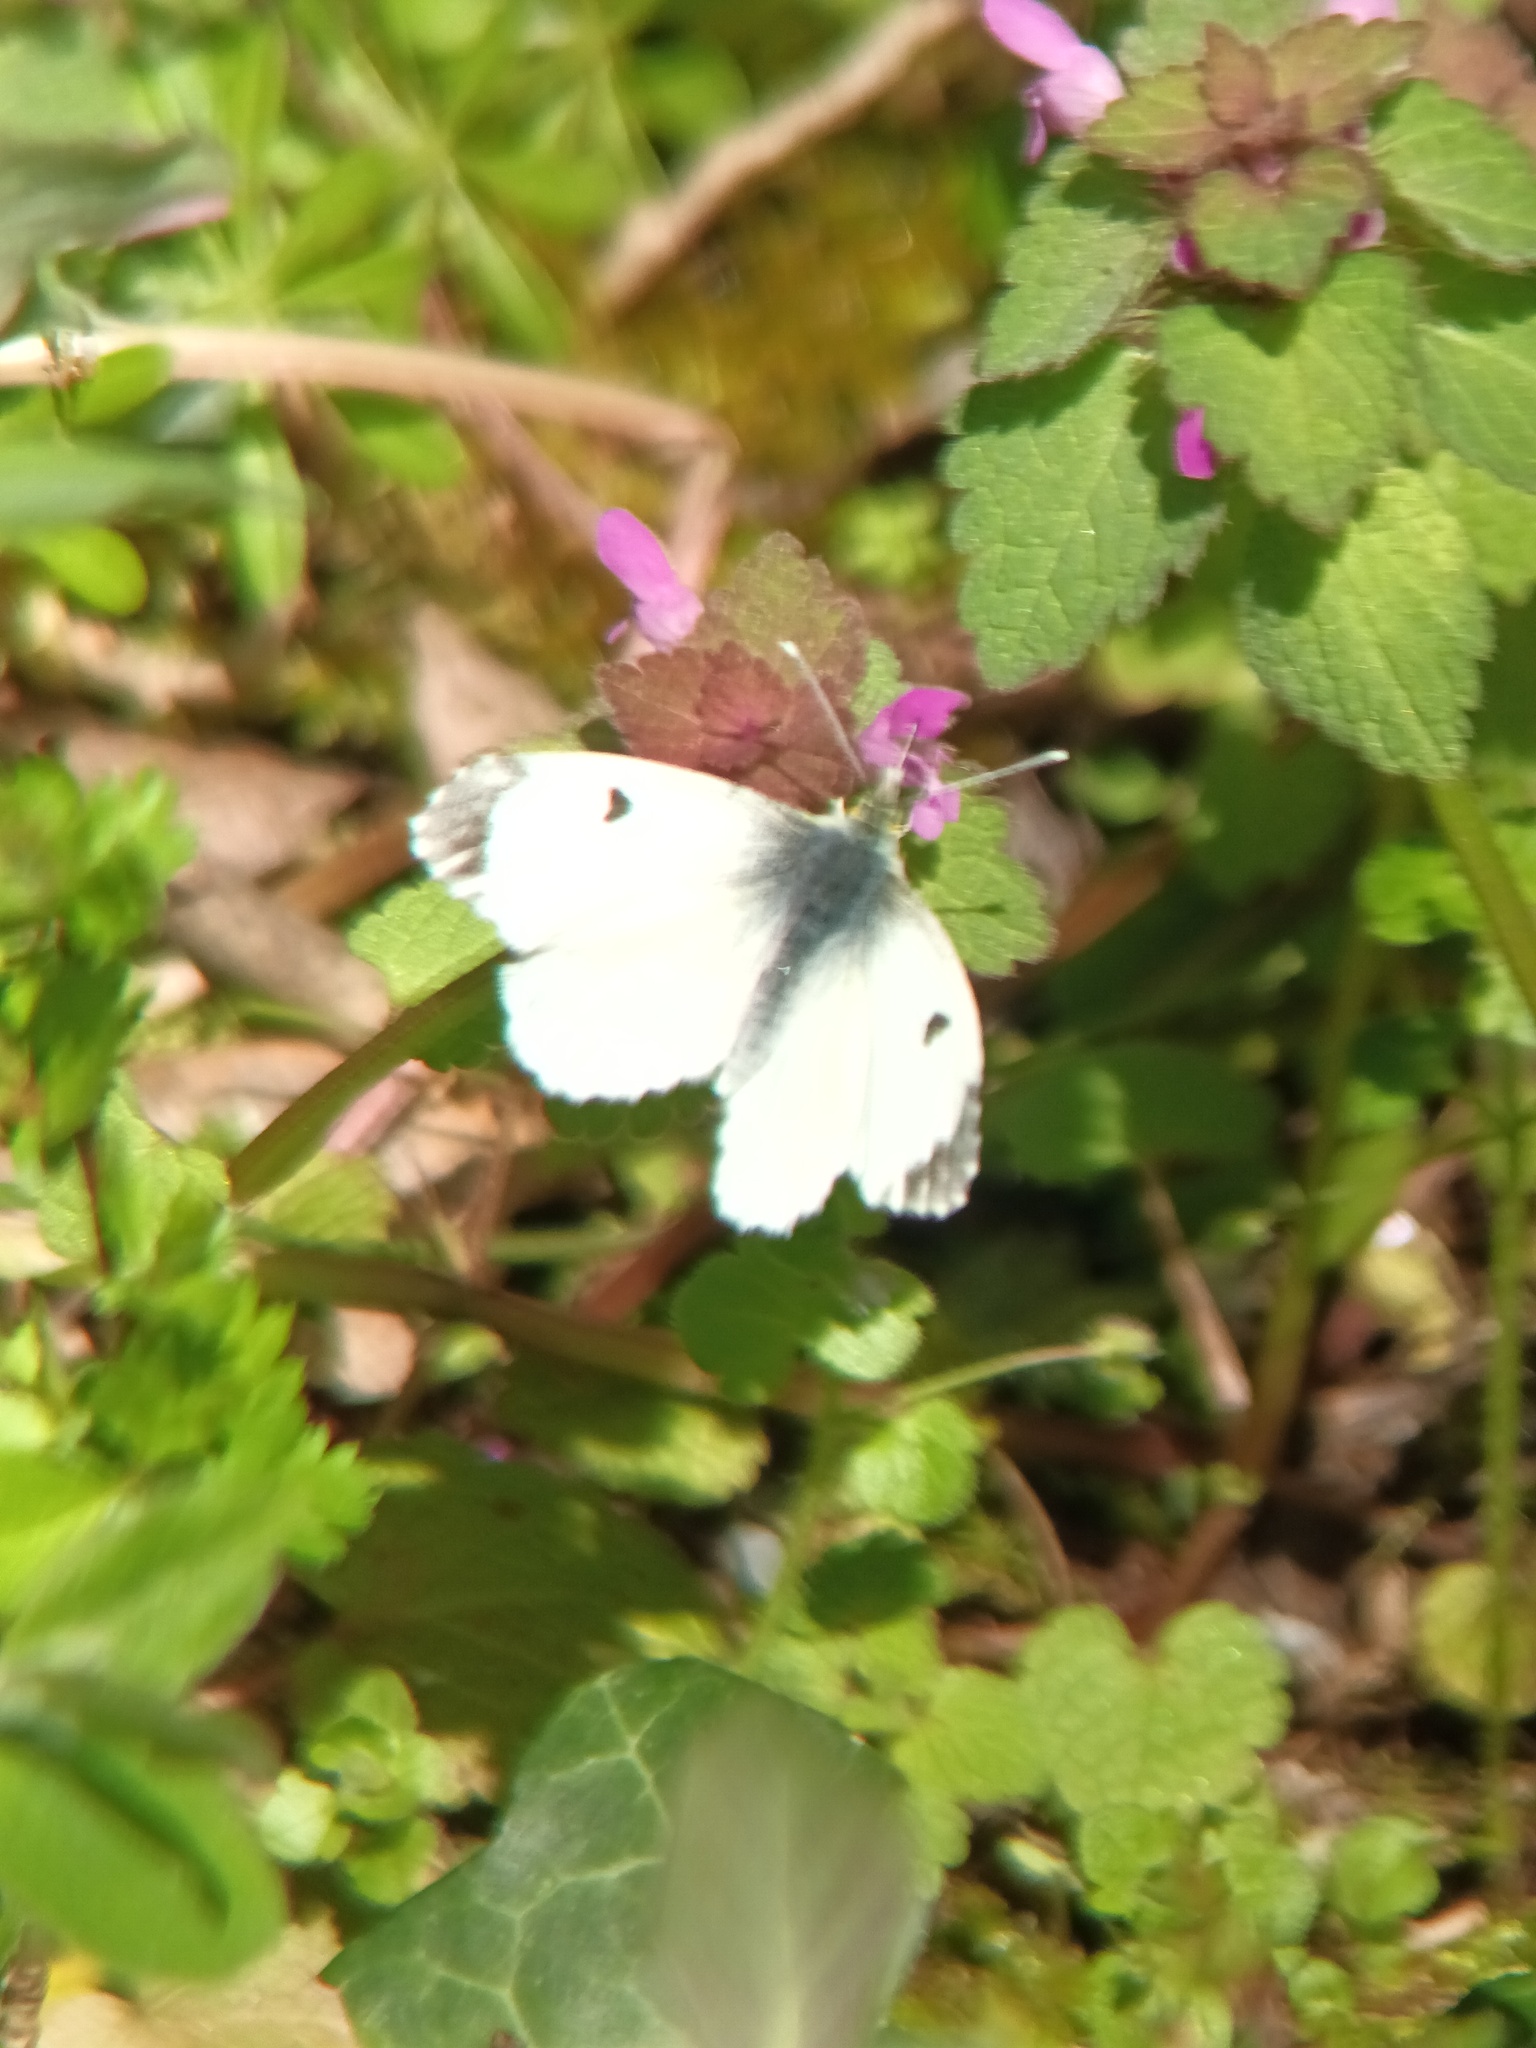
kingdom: Animalia
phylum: Arthropoda
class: Insecta
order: Lepidoptera
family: Pieridae
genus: Anthocharis
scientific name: Anthocharis cardamines
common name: Orange-tip
